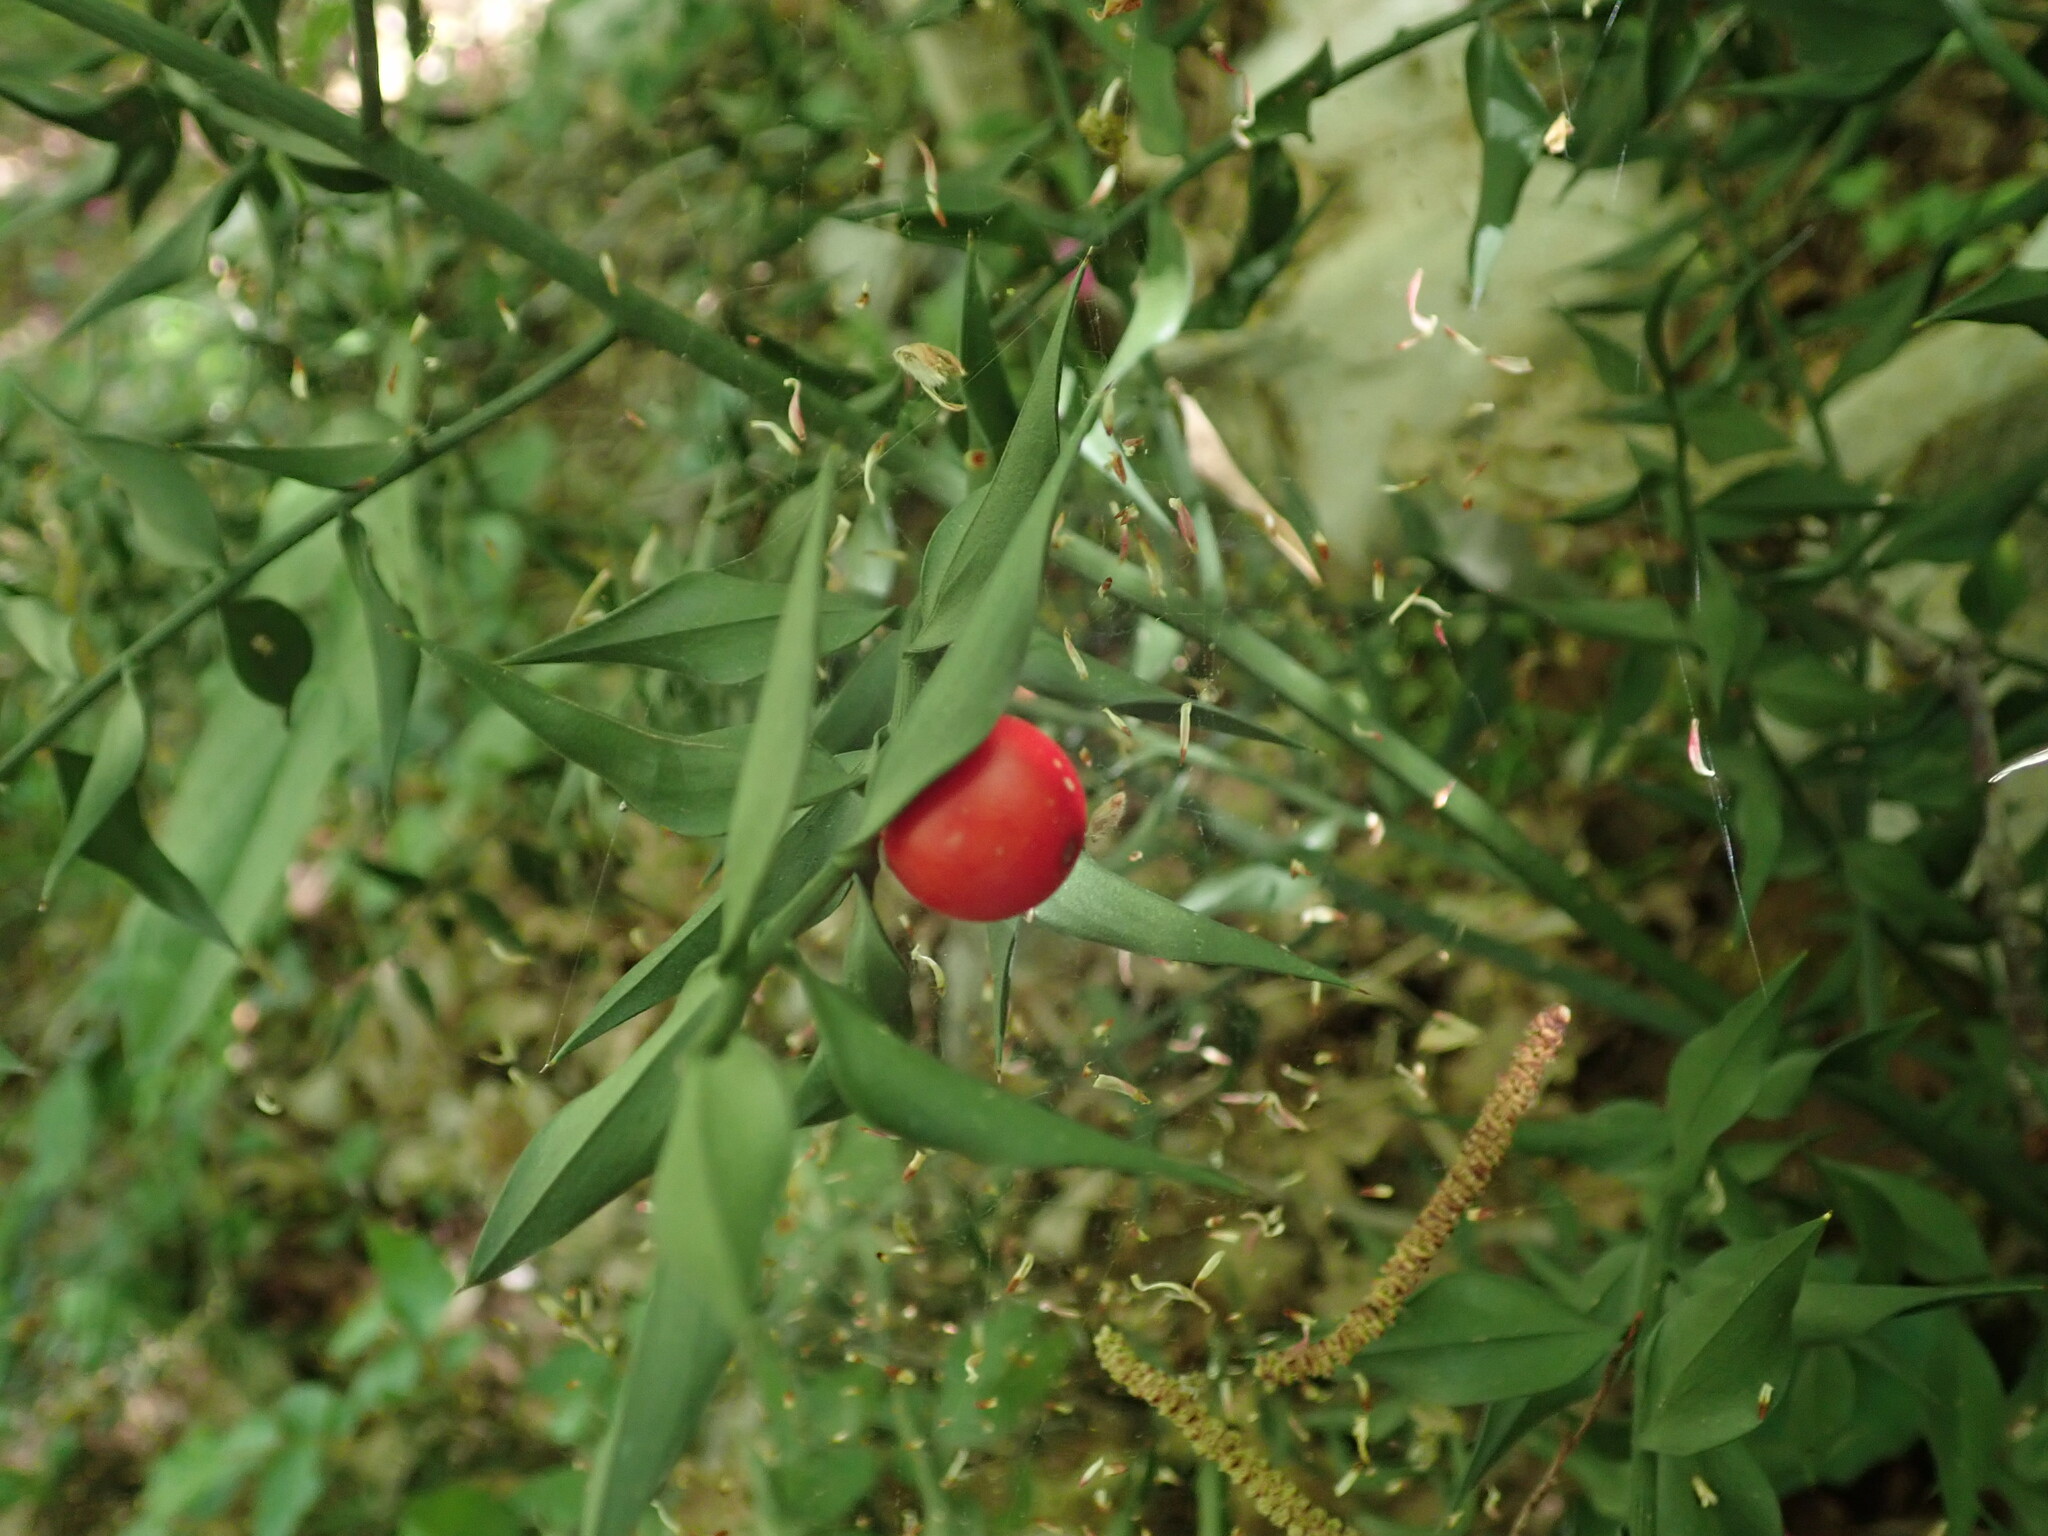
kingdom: Plantae
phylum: Tracheophyta
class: Liliopsida
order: Asparagales
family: Asparagaceae
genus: Ruscus
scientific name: Ruscus aculeatus
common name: Butcher's-broom
